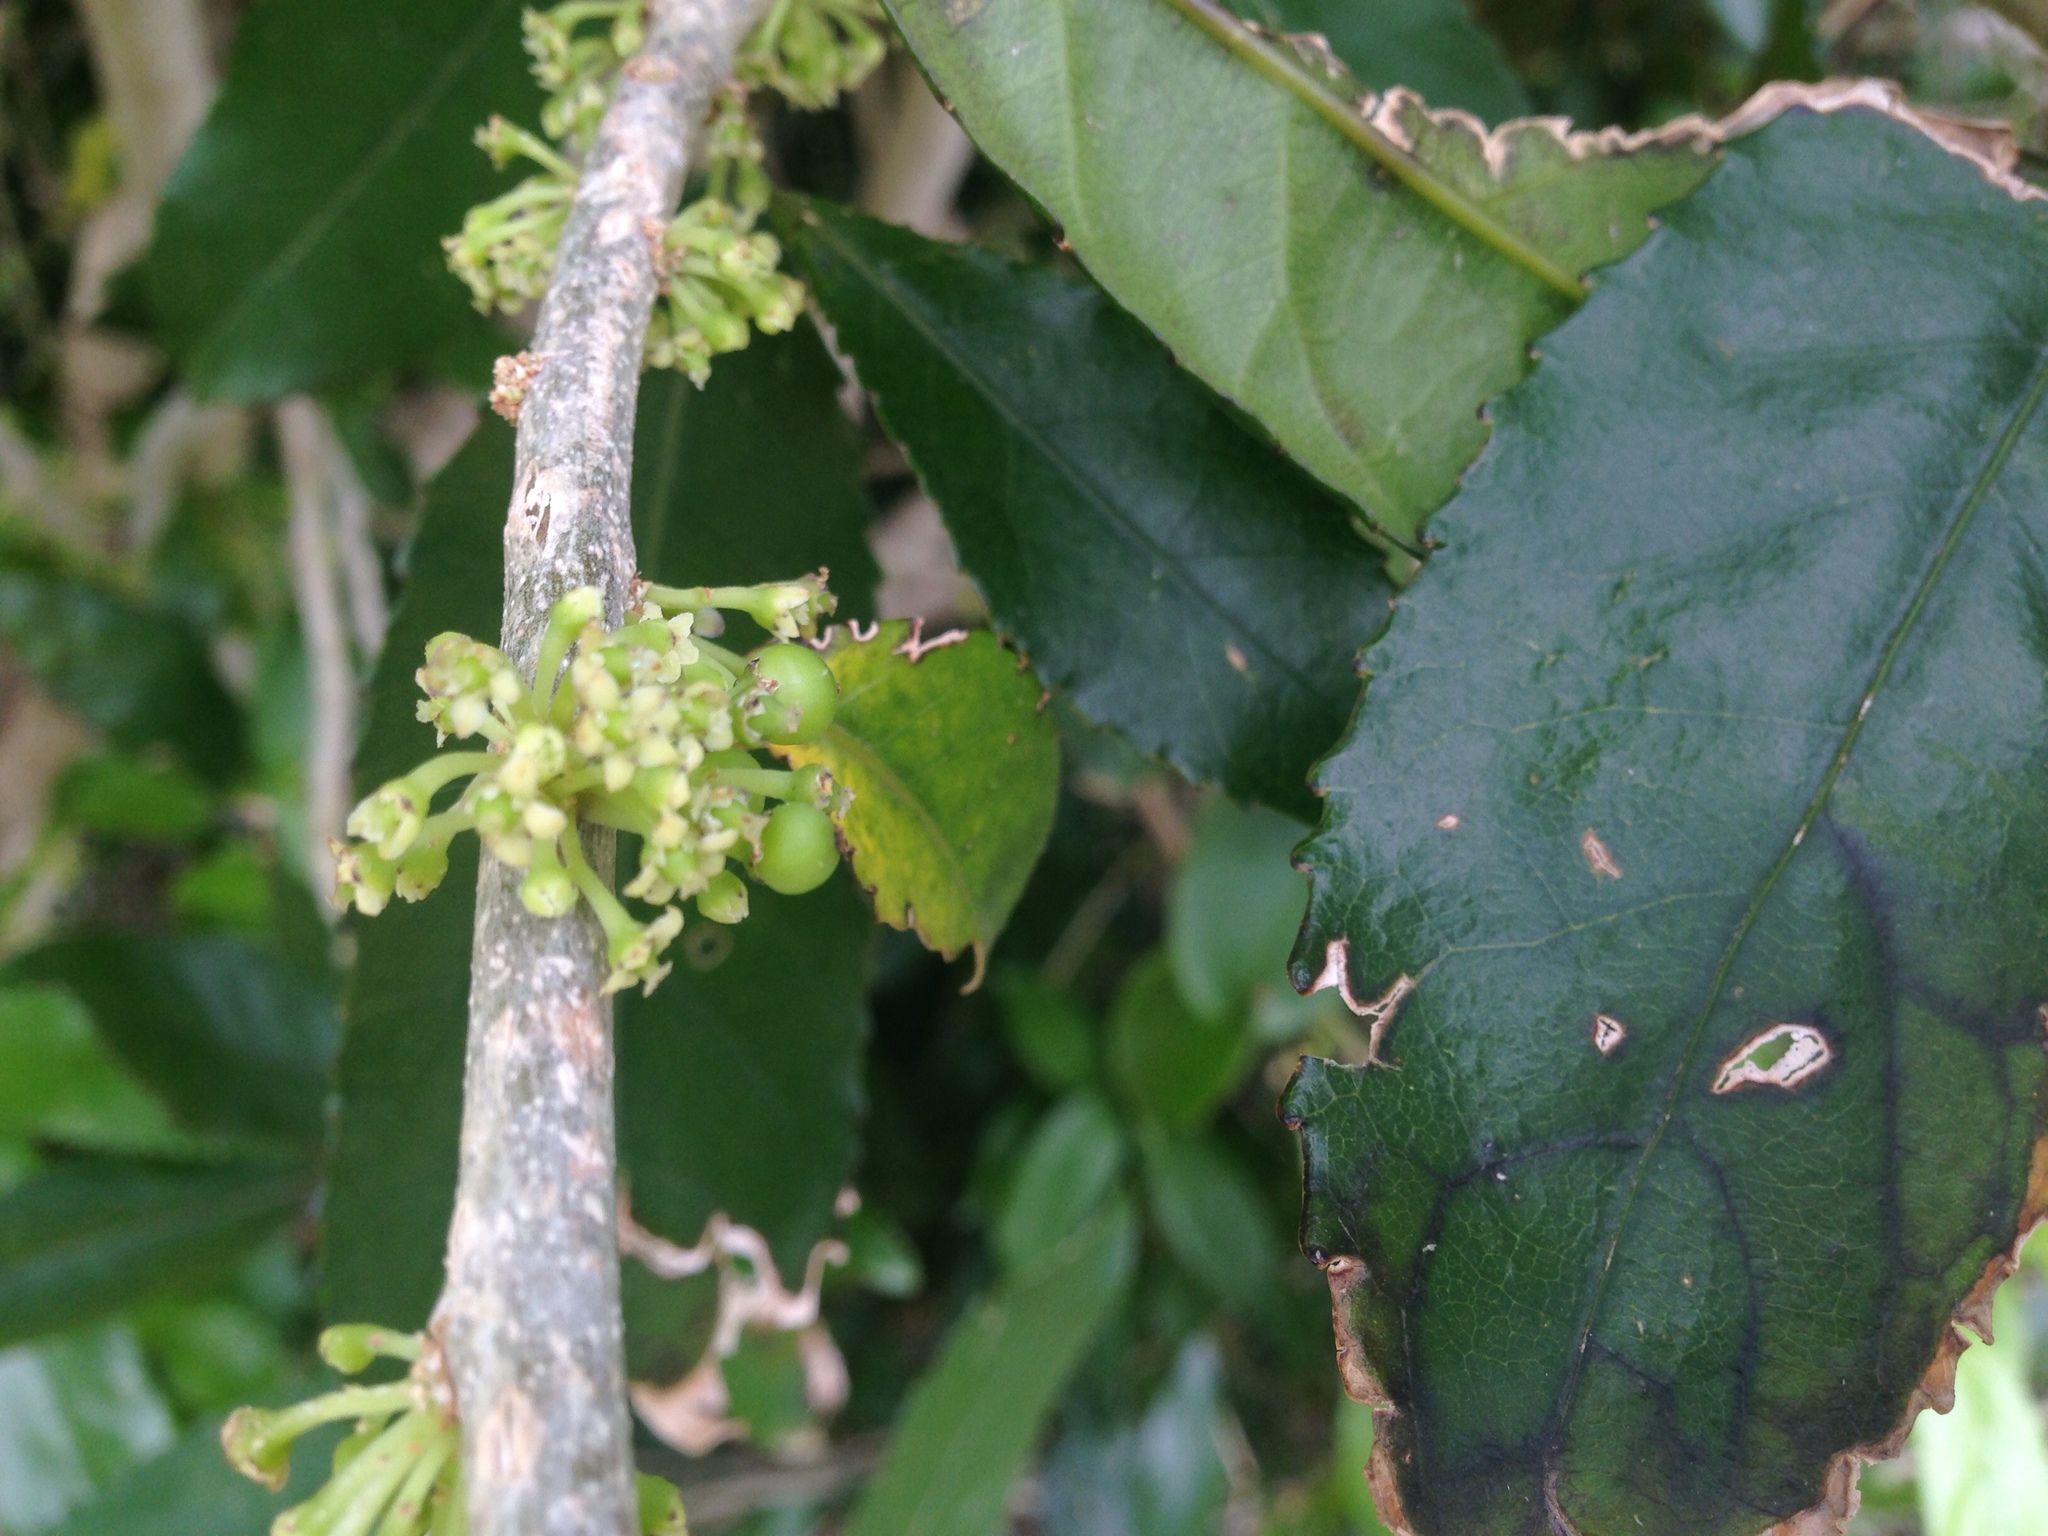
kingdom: Plantae
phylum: Tracheophyta
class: Magnoliopsida
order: Malpighiales
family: Violaceae
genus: Melicytus
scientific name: Melicytus ramiflorus
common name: Mahoe
